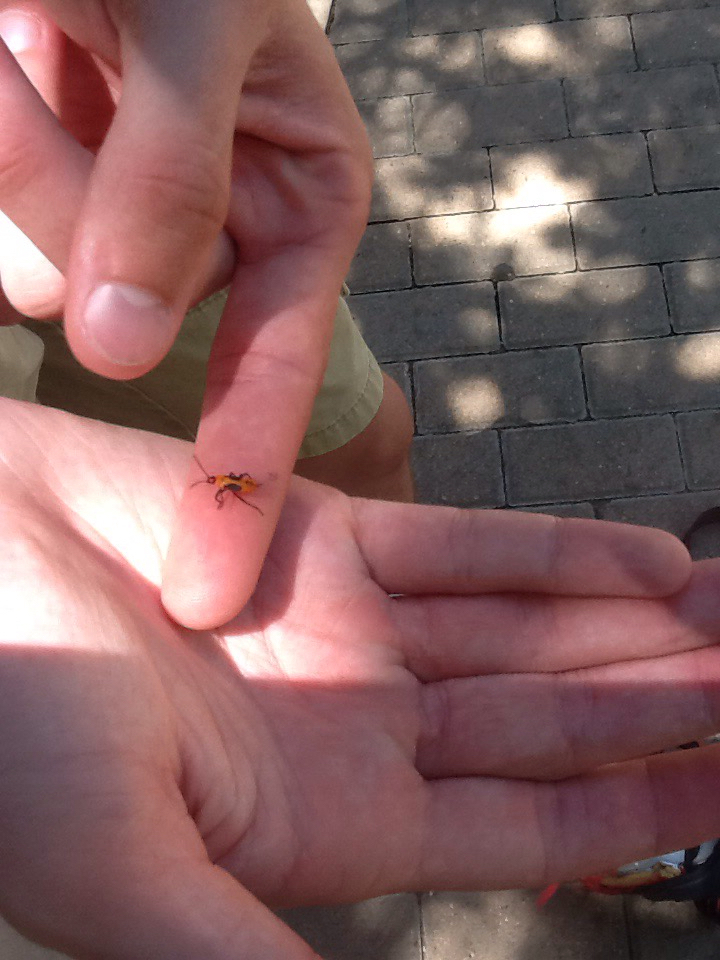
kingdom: Animalia
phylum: Arthropoda
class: Insecta
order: Hemiptera
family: Lygaeidae
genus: Oncopeltus
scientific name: Oncopeltus fasciatus
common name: Large milkweed bug
